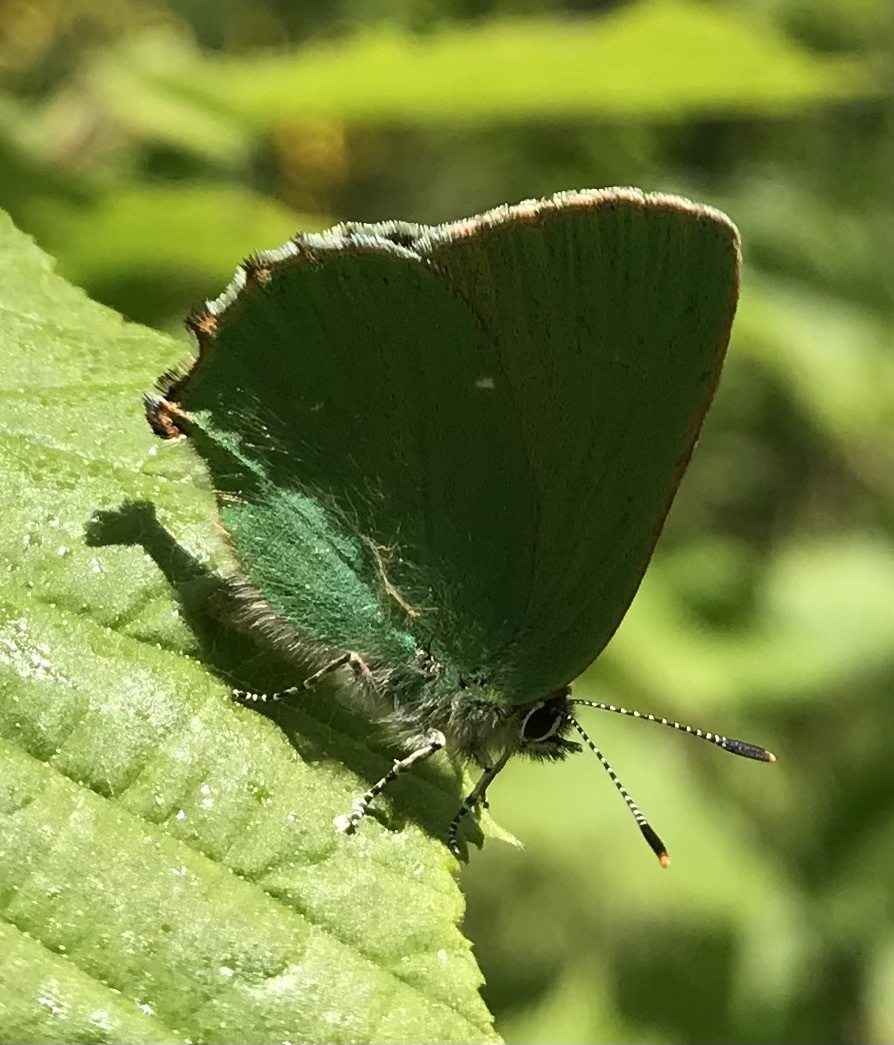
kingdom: Animalia
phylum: Arthropoda
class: Insecta
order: Lepidoptera
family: Lycaenidae
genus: Callophrys
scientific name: Callophrys rubi
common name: Green hairstreak
